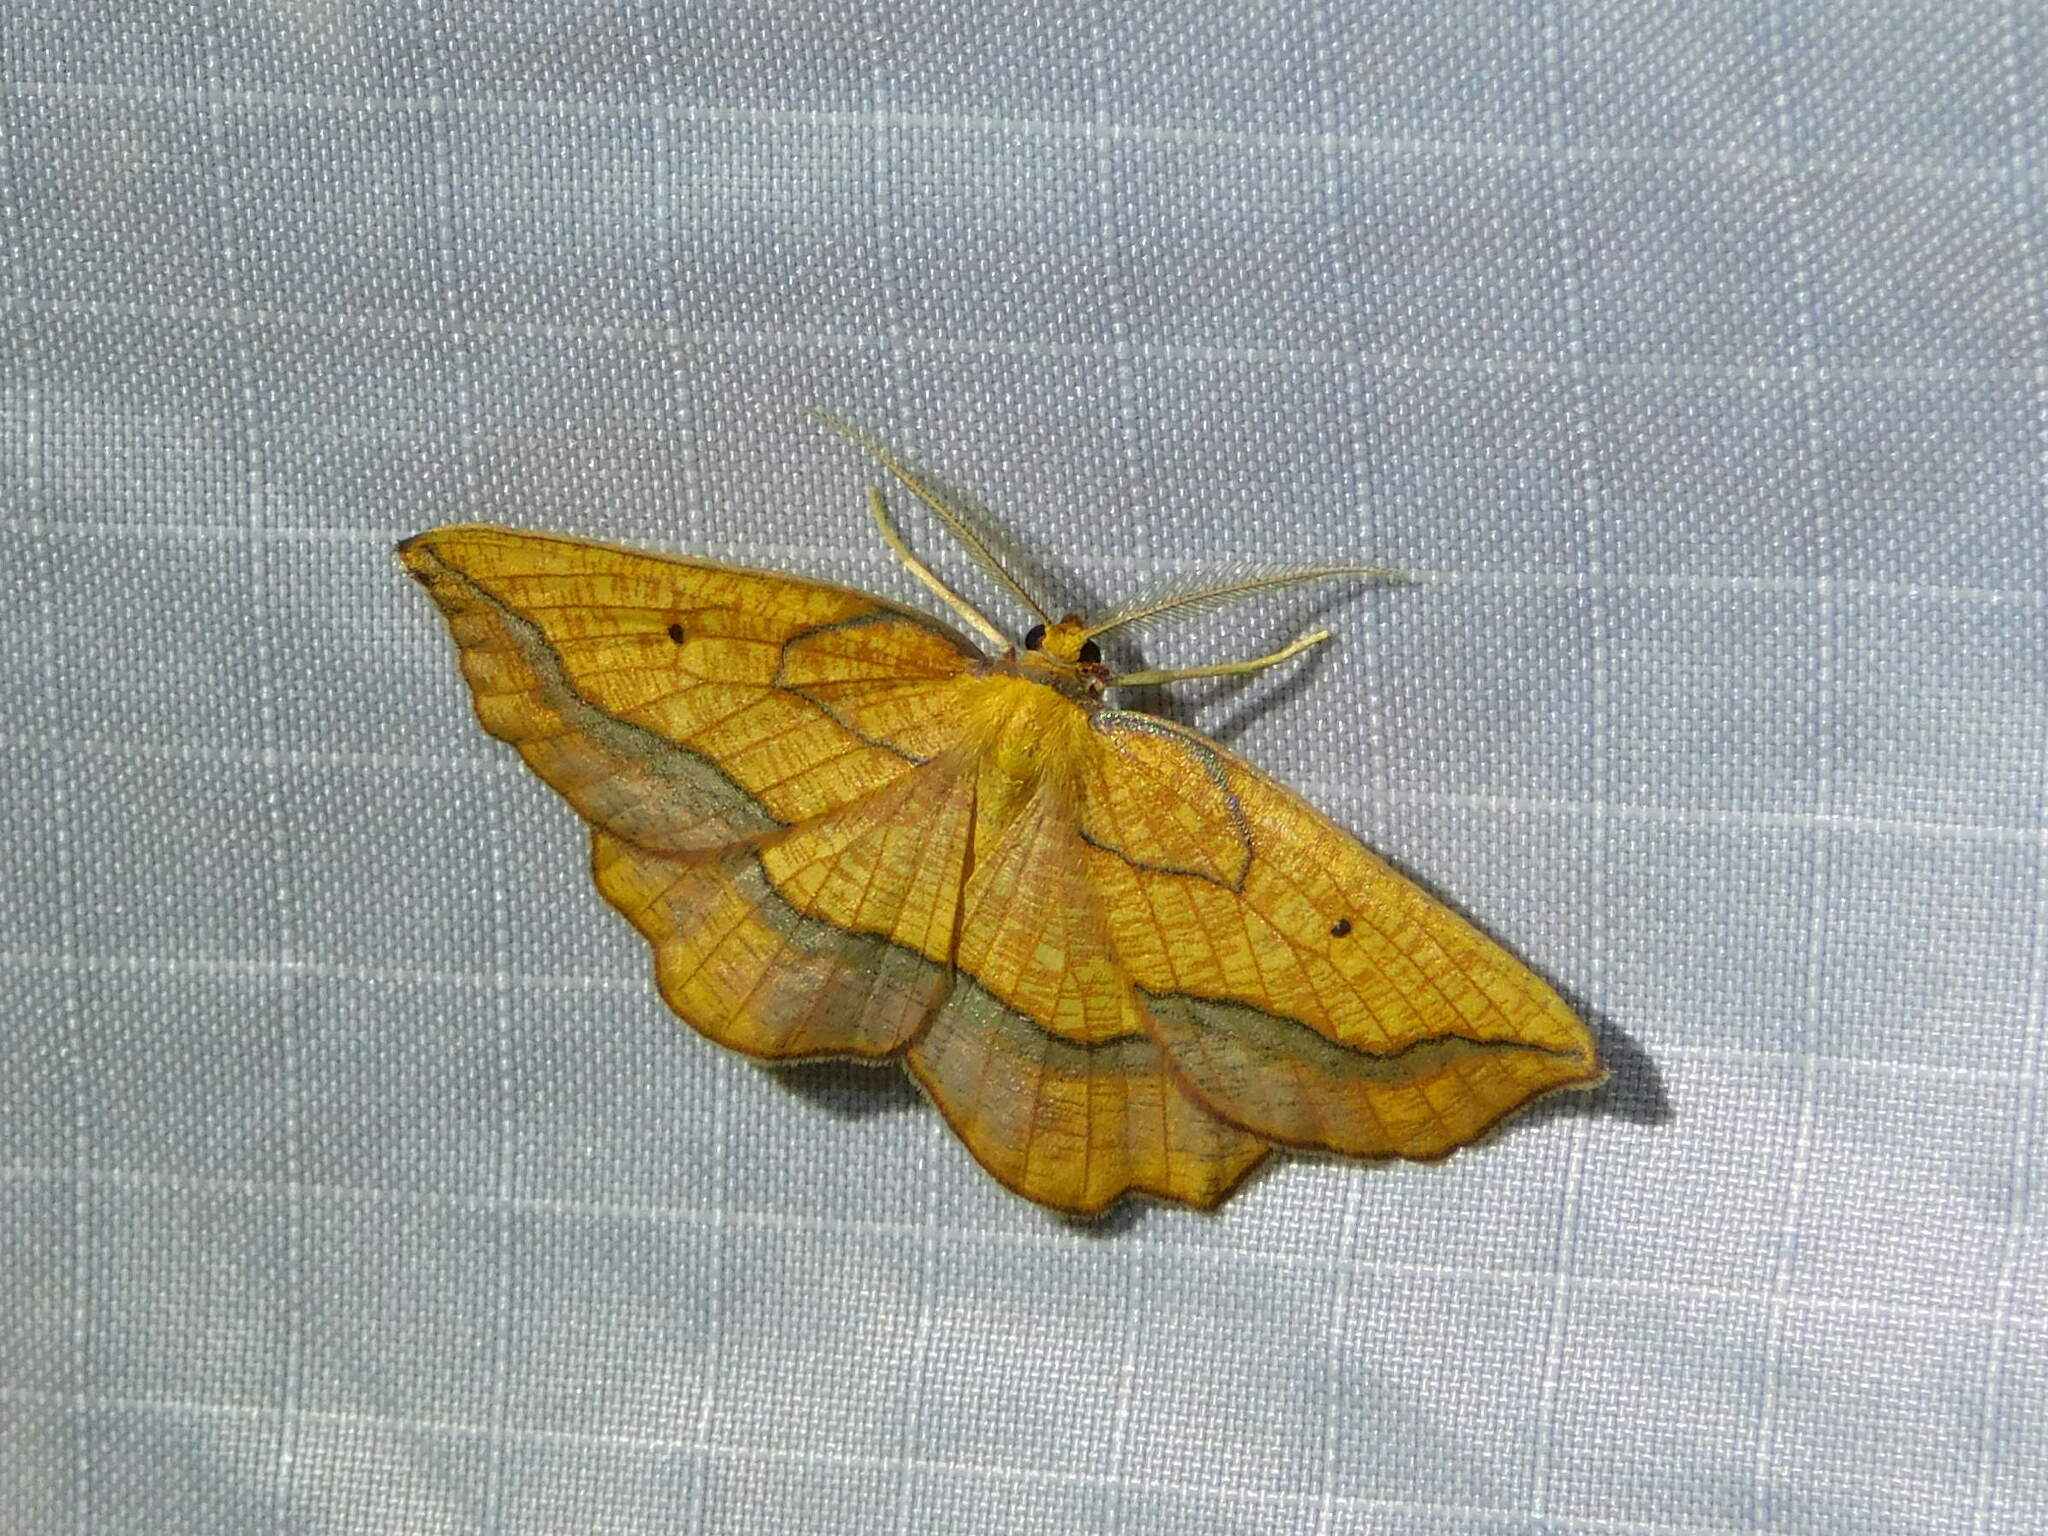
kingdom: Animalia
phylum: Arthropoda
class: Insecta
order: Lepidoptera
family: Geometridae
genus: Epione
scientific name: Epione repandaria
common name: Bordered beauty
